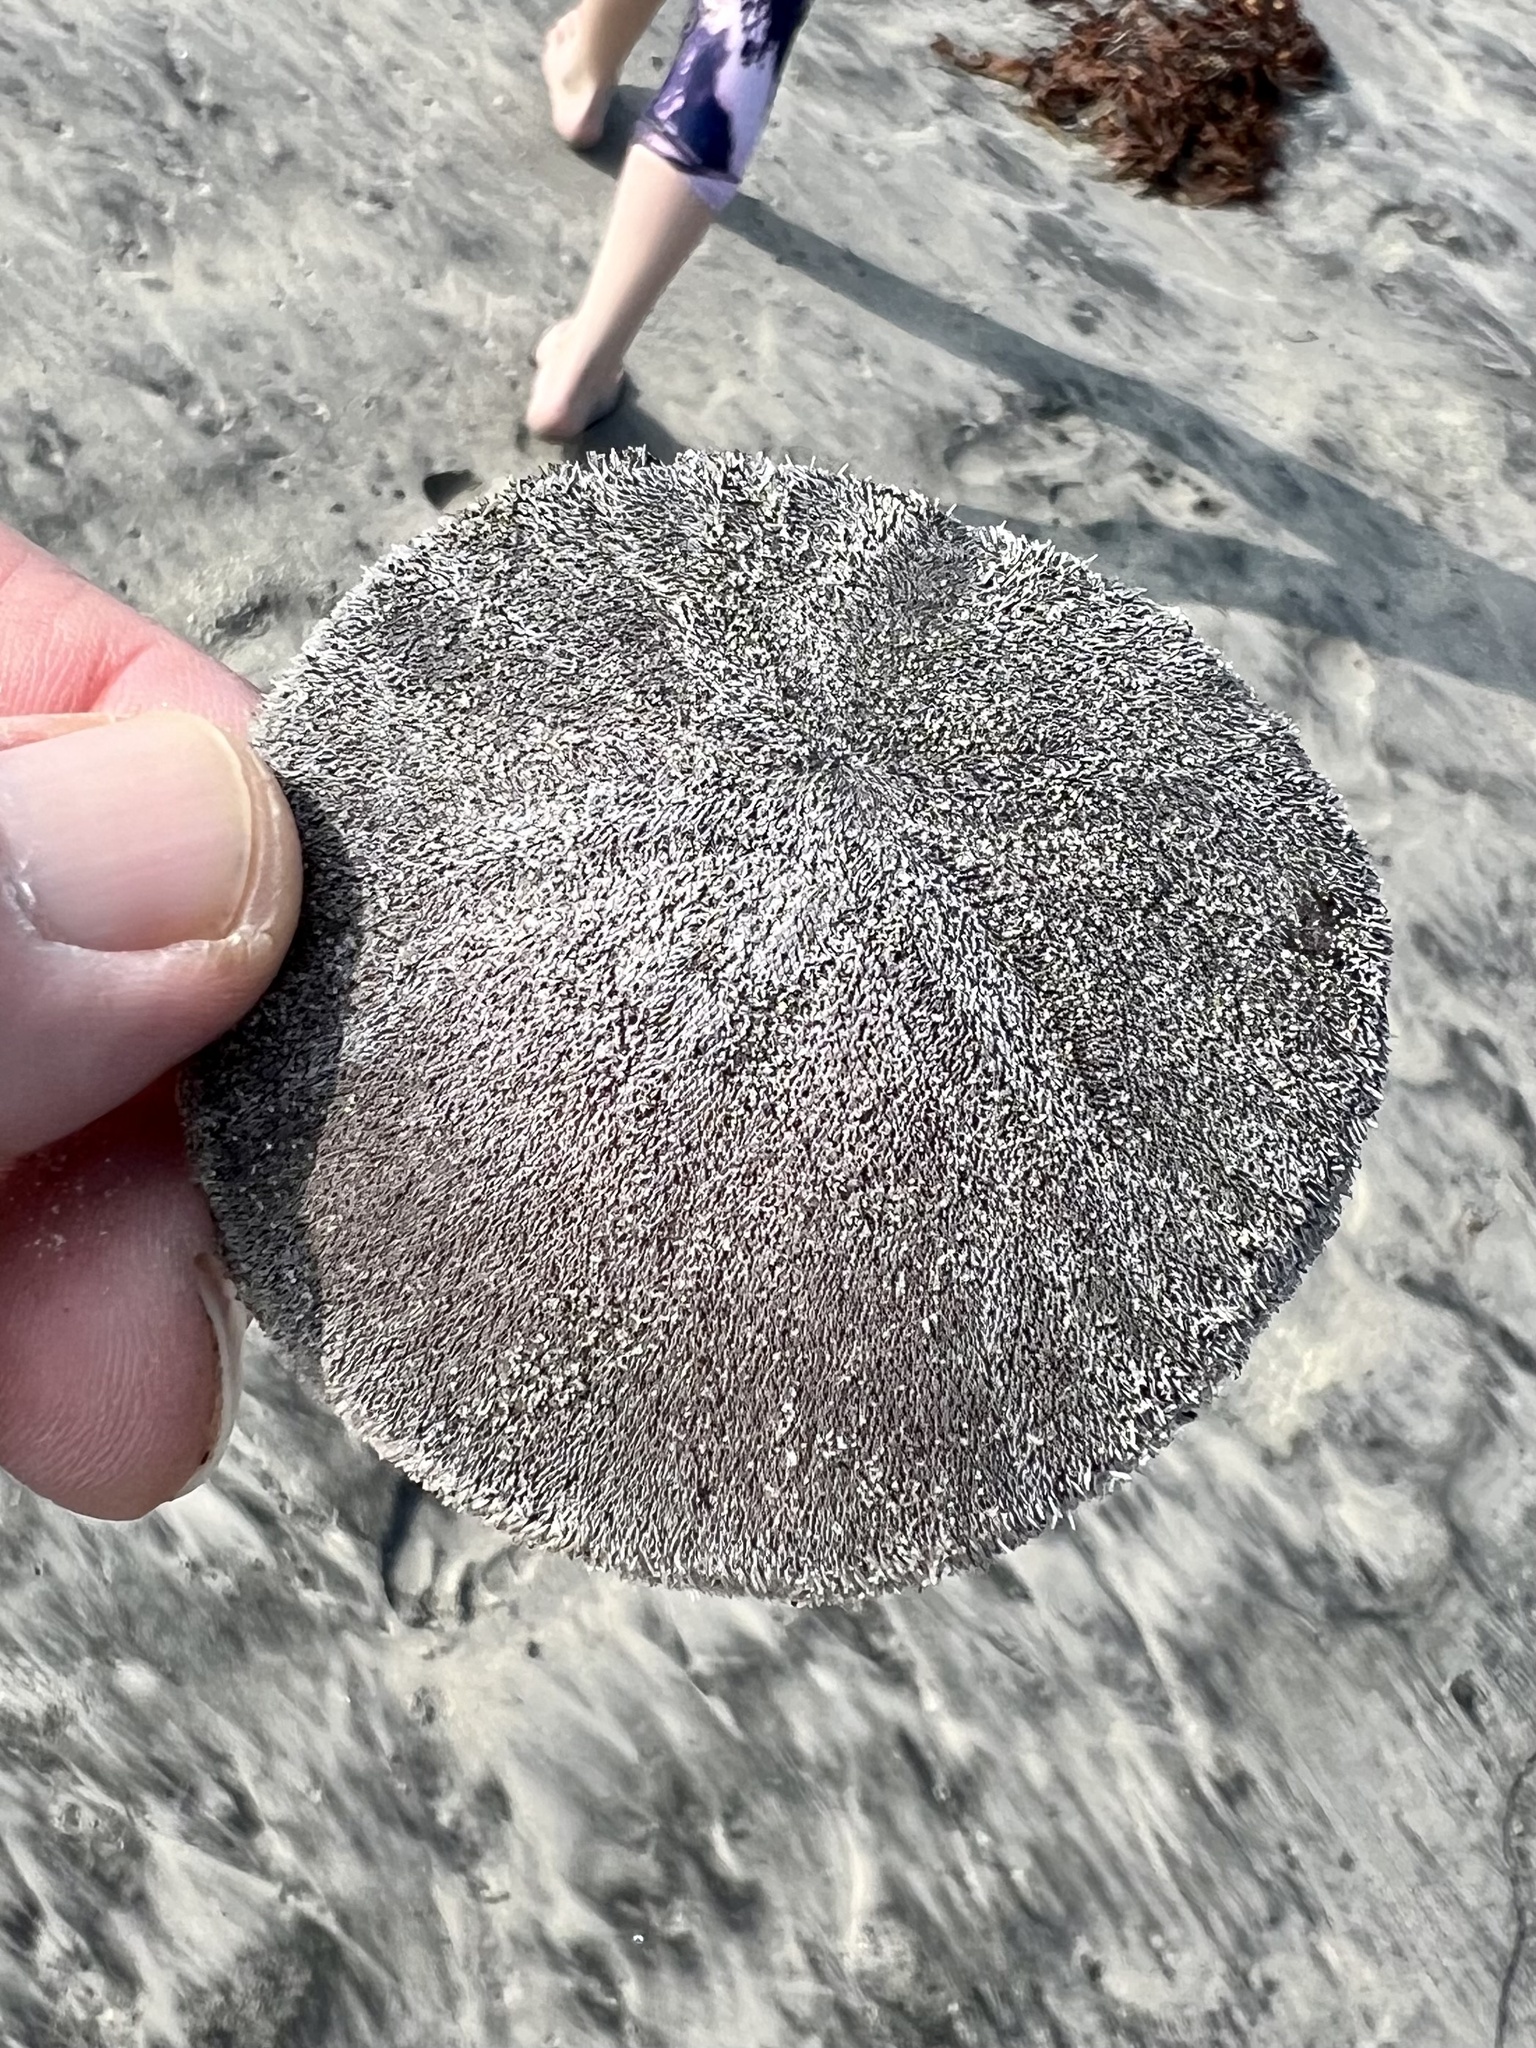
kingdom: Animalia
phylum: Echinodermata
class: Echinoidea
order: Echinolampadacea
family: Dendrasteridae
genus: Dendraster
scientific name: Dendraster excentricus
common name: Eccentric sand dollar sea urchin
